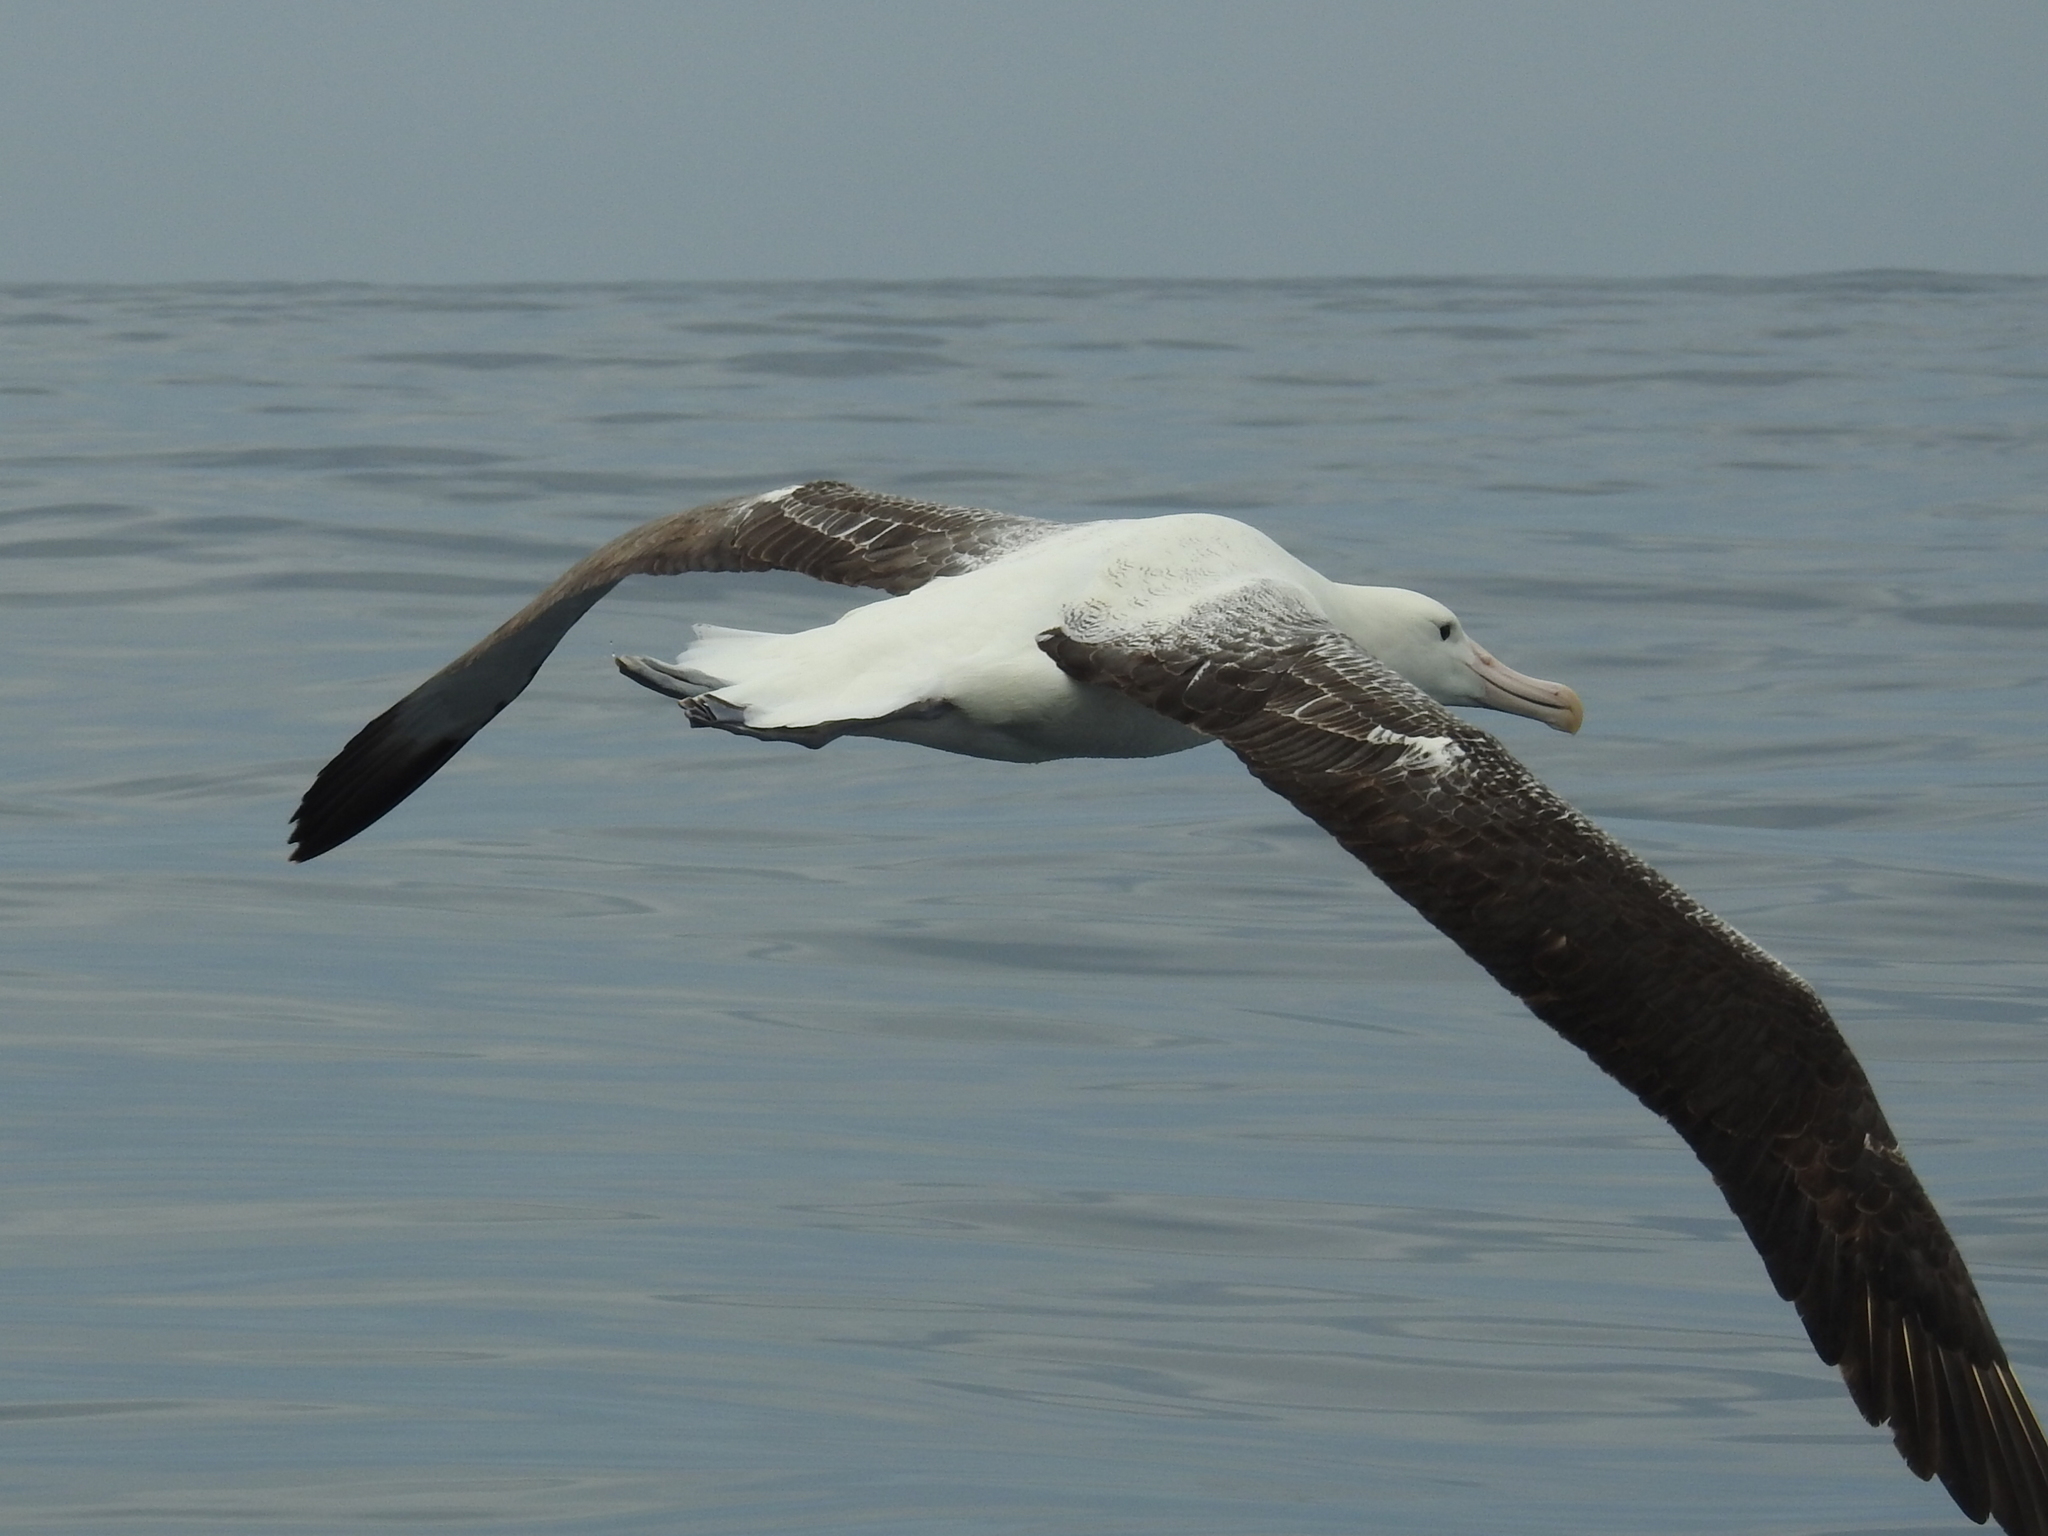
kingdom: Animalia
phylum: Chordata
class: Aves
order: Procellariiformes
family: Diomedeidae
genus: Diomedea
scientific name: Diomedea epomophora
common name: Southern royal albatross
